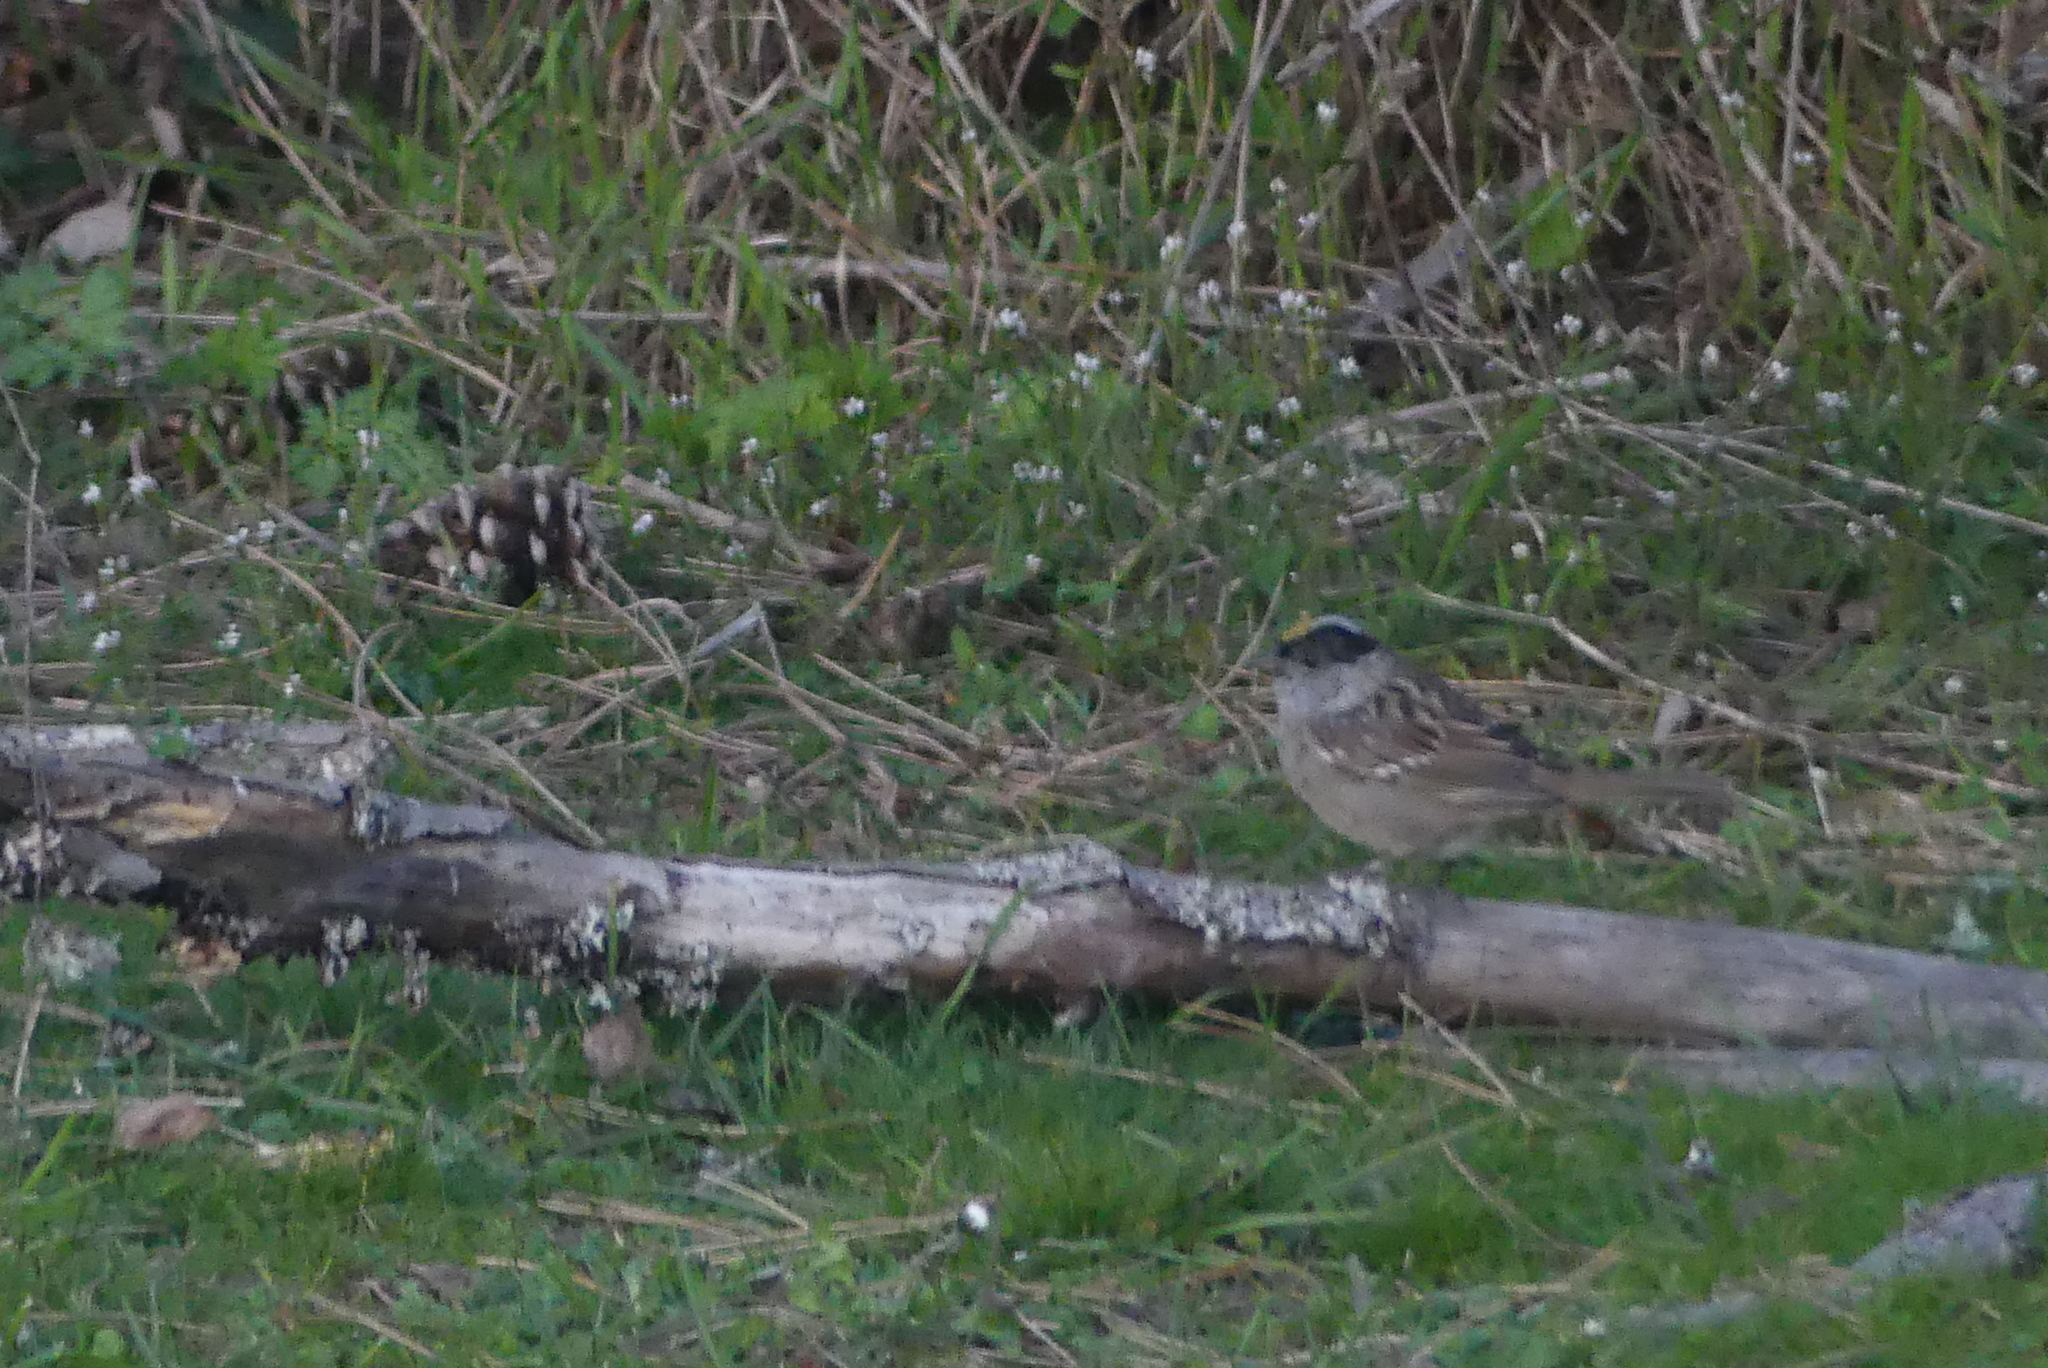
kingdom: Animalia
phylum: Chordata
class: Aves
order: Passeriformes
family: Passerellidae
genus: Zonotrichia
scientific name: Zonotrichia atricapilla
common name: Golden-crowned sparrow
